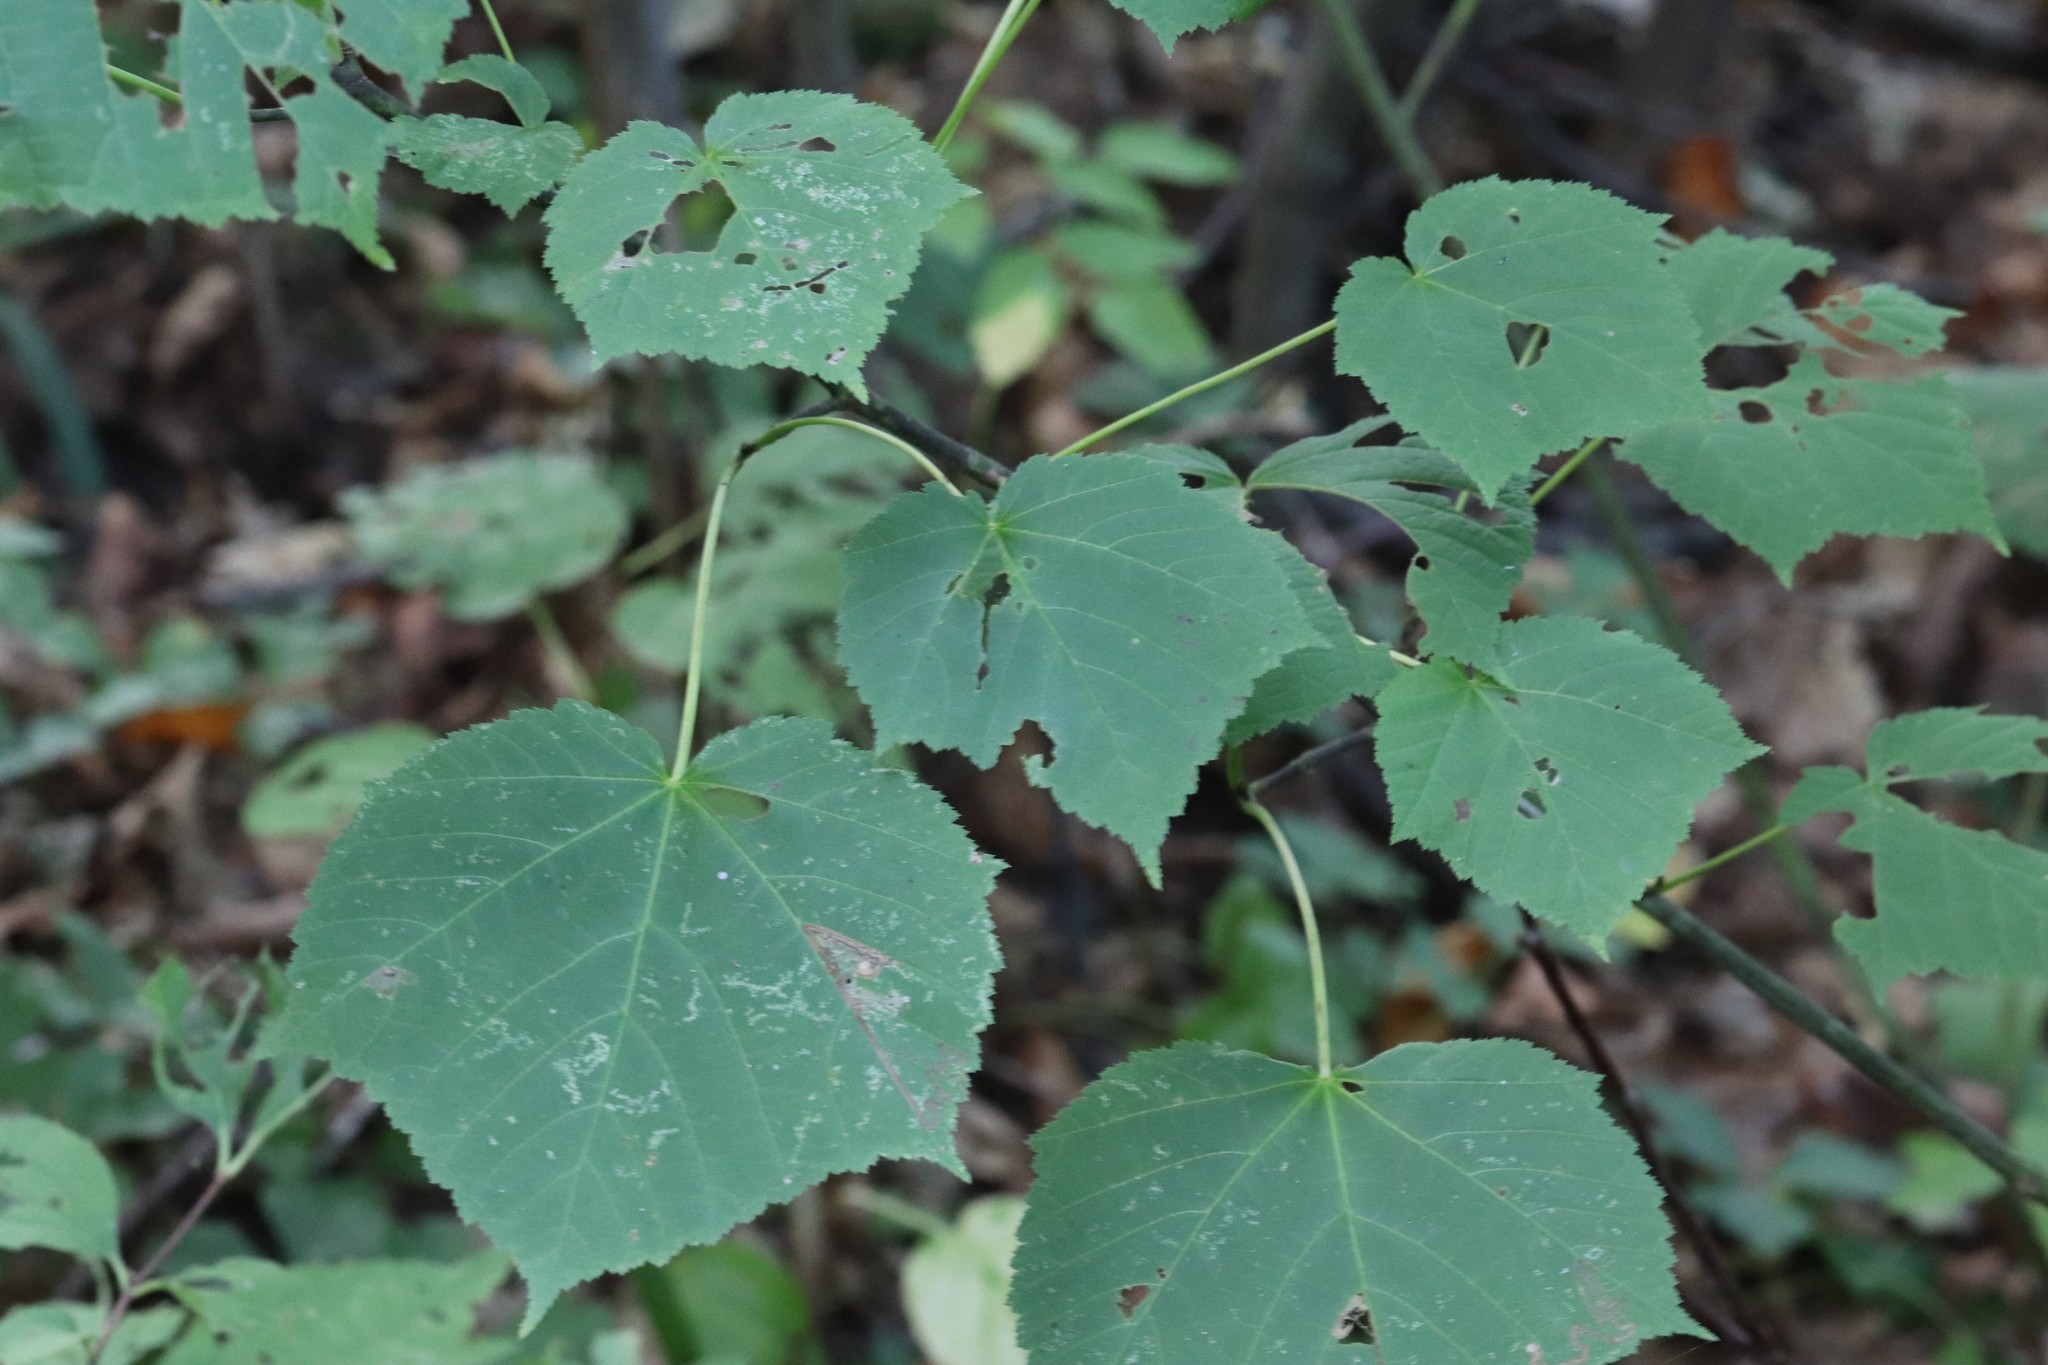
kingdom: Plantae
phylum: Tracheophyta
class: Magnoliopsida
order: Sapindales
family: Sapindaceae
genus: Acer
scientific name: Acer tegmentosum
